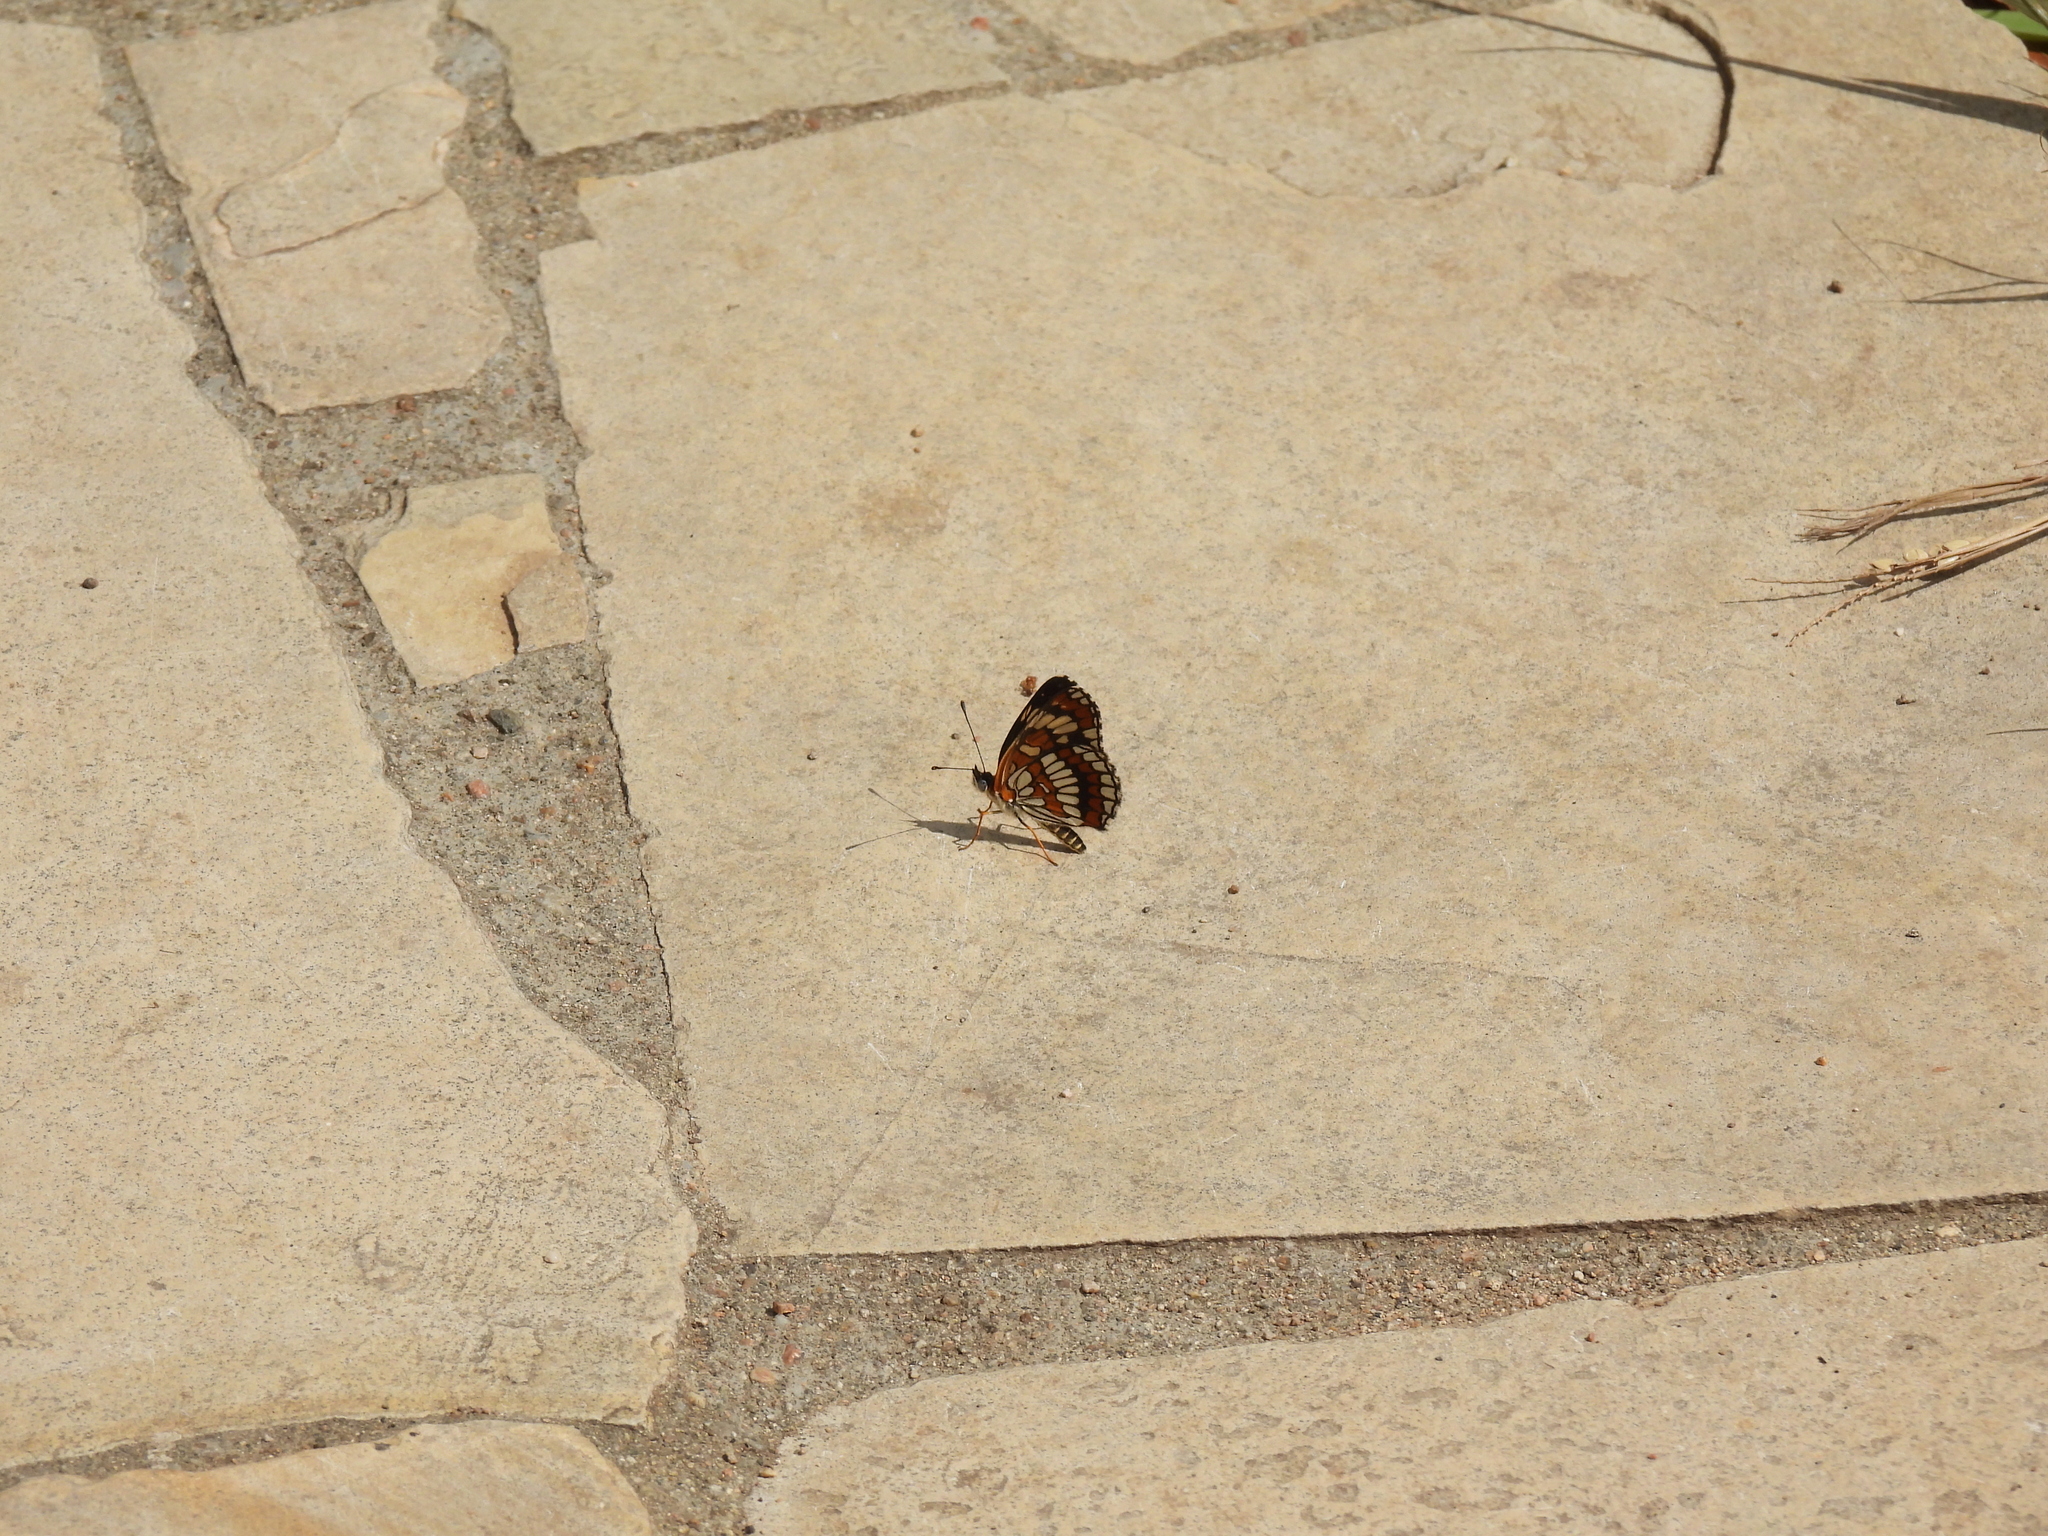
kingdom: Animalia
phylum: Arthropoda
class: Insecta
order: Lepidoptera
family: Nymphalidae
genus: Thessalia
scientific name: Thessalia theona
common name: Nymphalid moth
